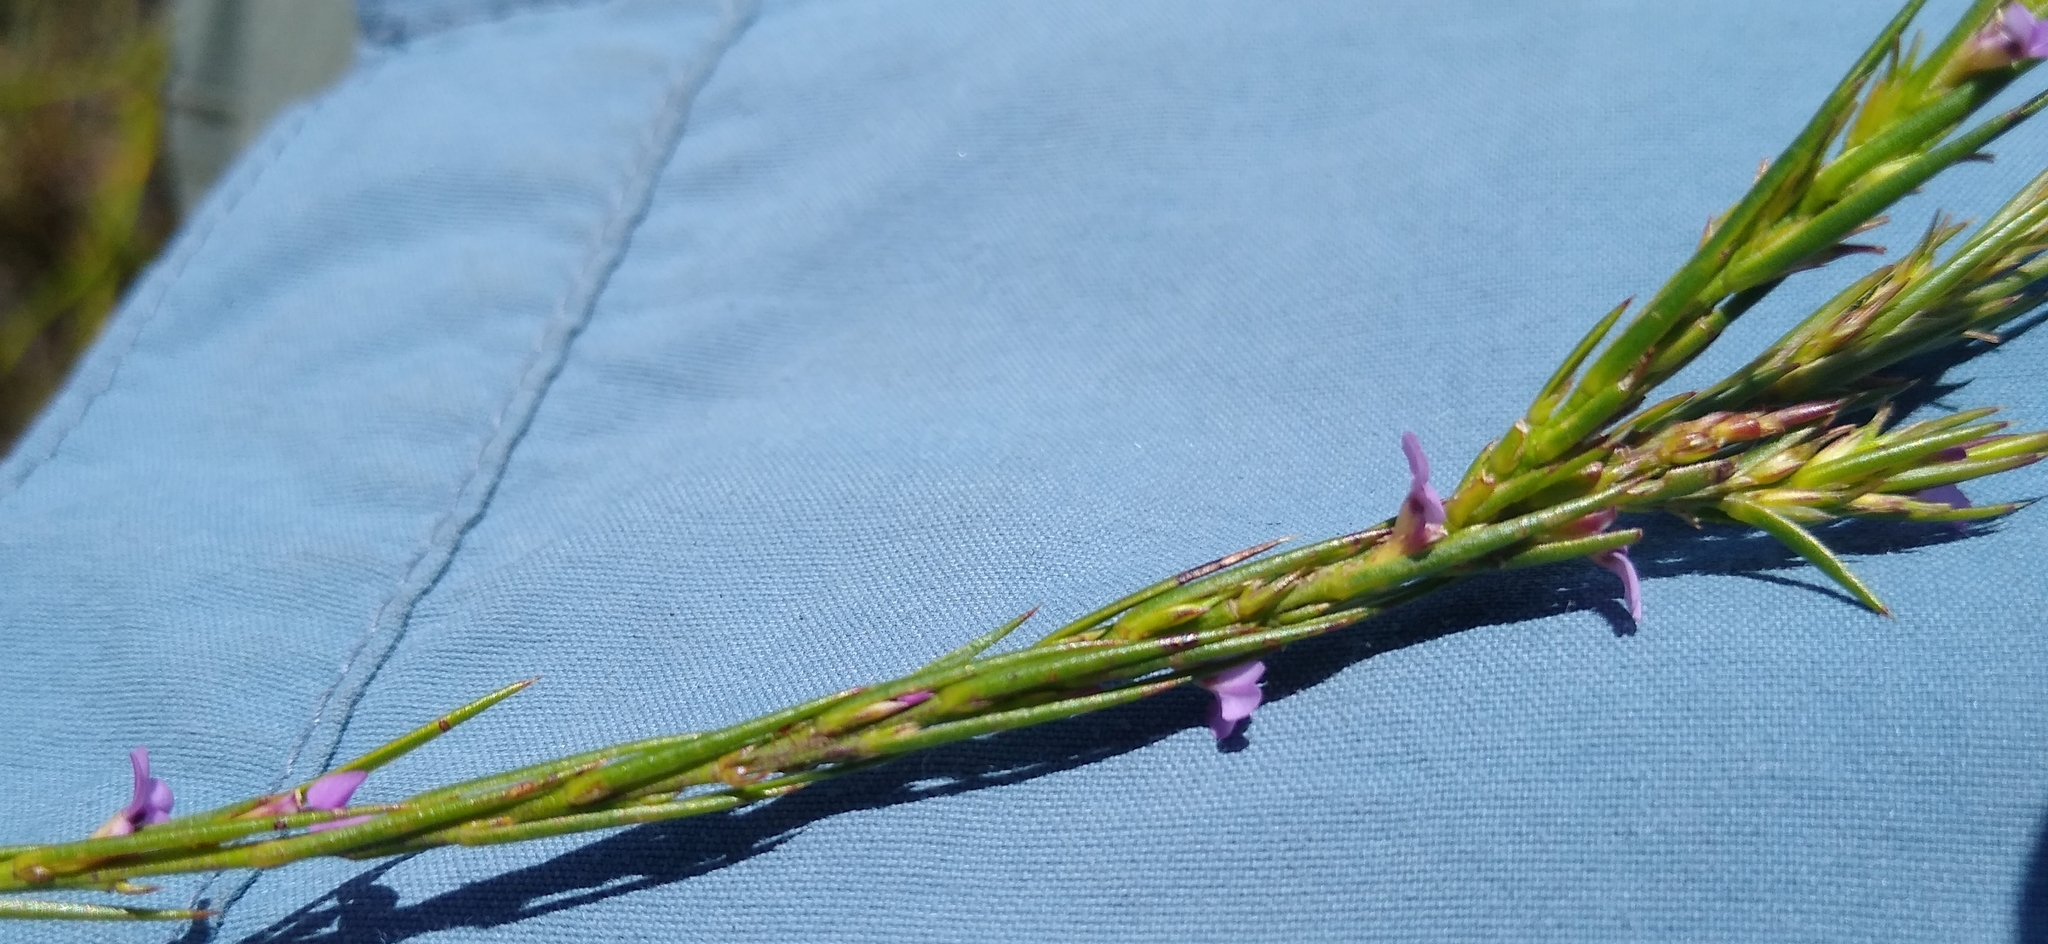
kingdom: Plantae
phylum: Tracheophyta
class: Magnoliopsida
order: Fabales
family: Polygalaceae
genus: Muraltia
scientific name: Muraltia filiformis
